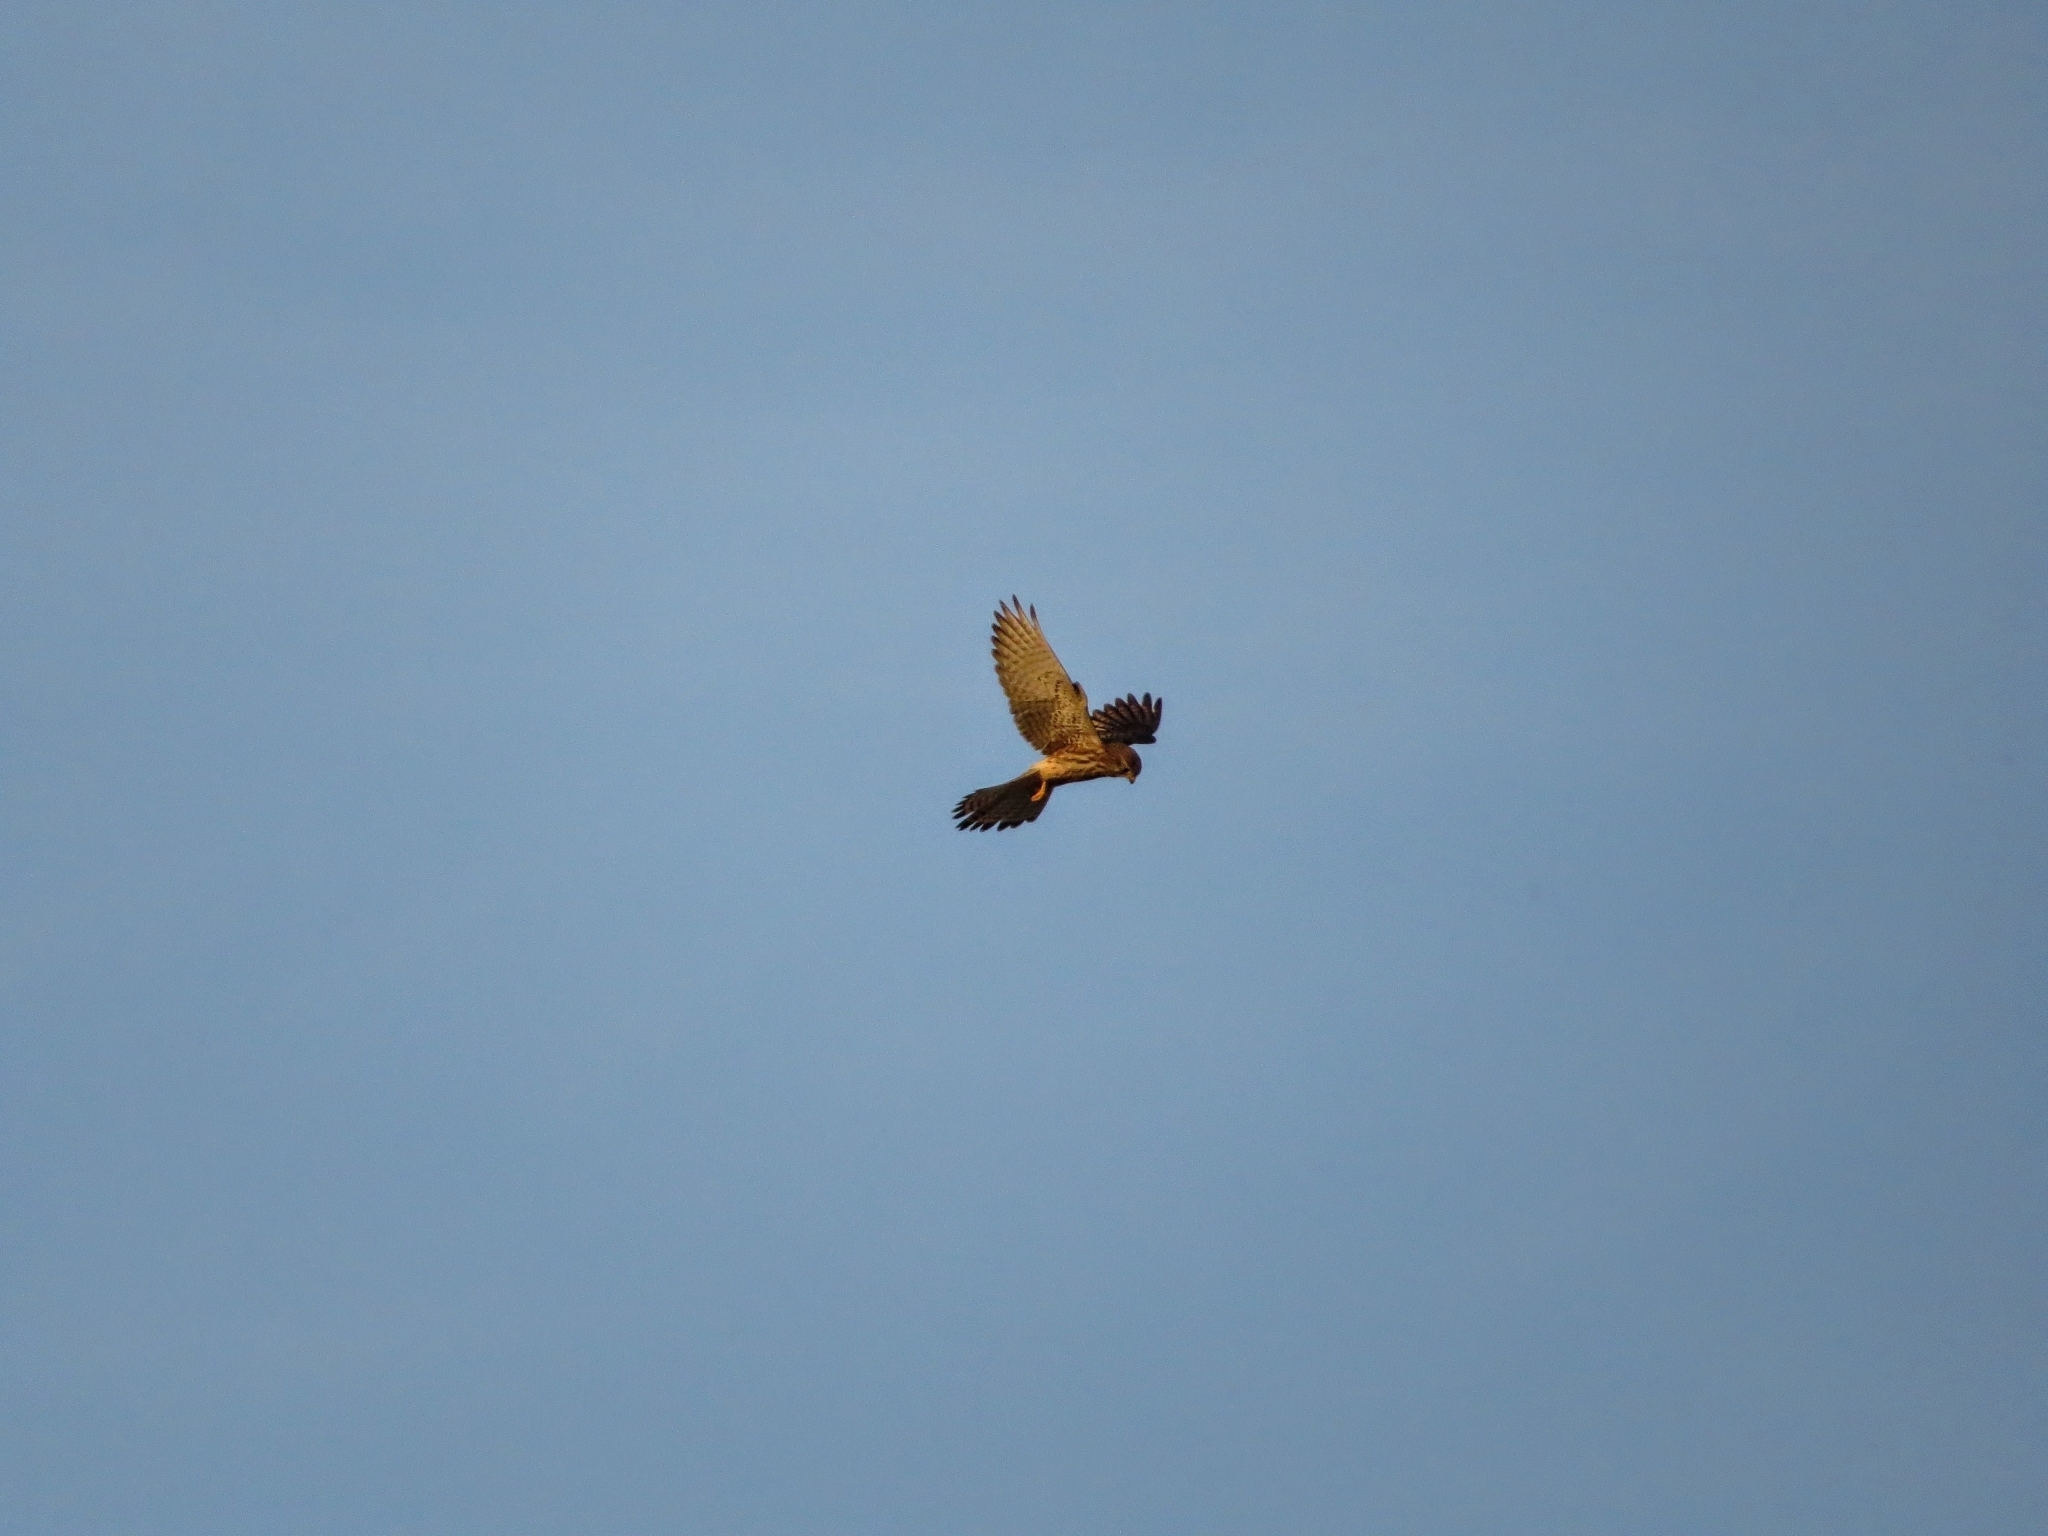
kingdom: Animalia
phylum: Chordata
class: Aves
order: Falconiformes
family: Falconidae
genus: Falco
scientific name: Falco tinnunculus
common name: Common kestrel
